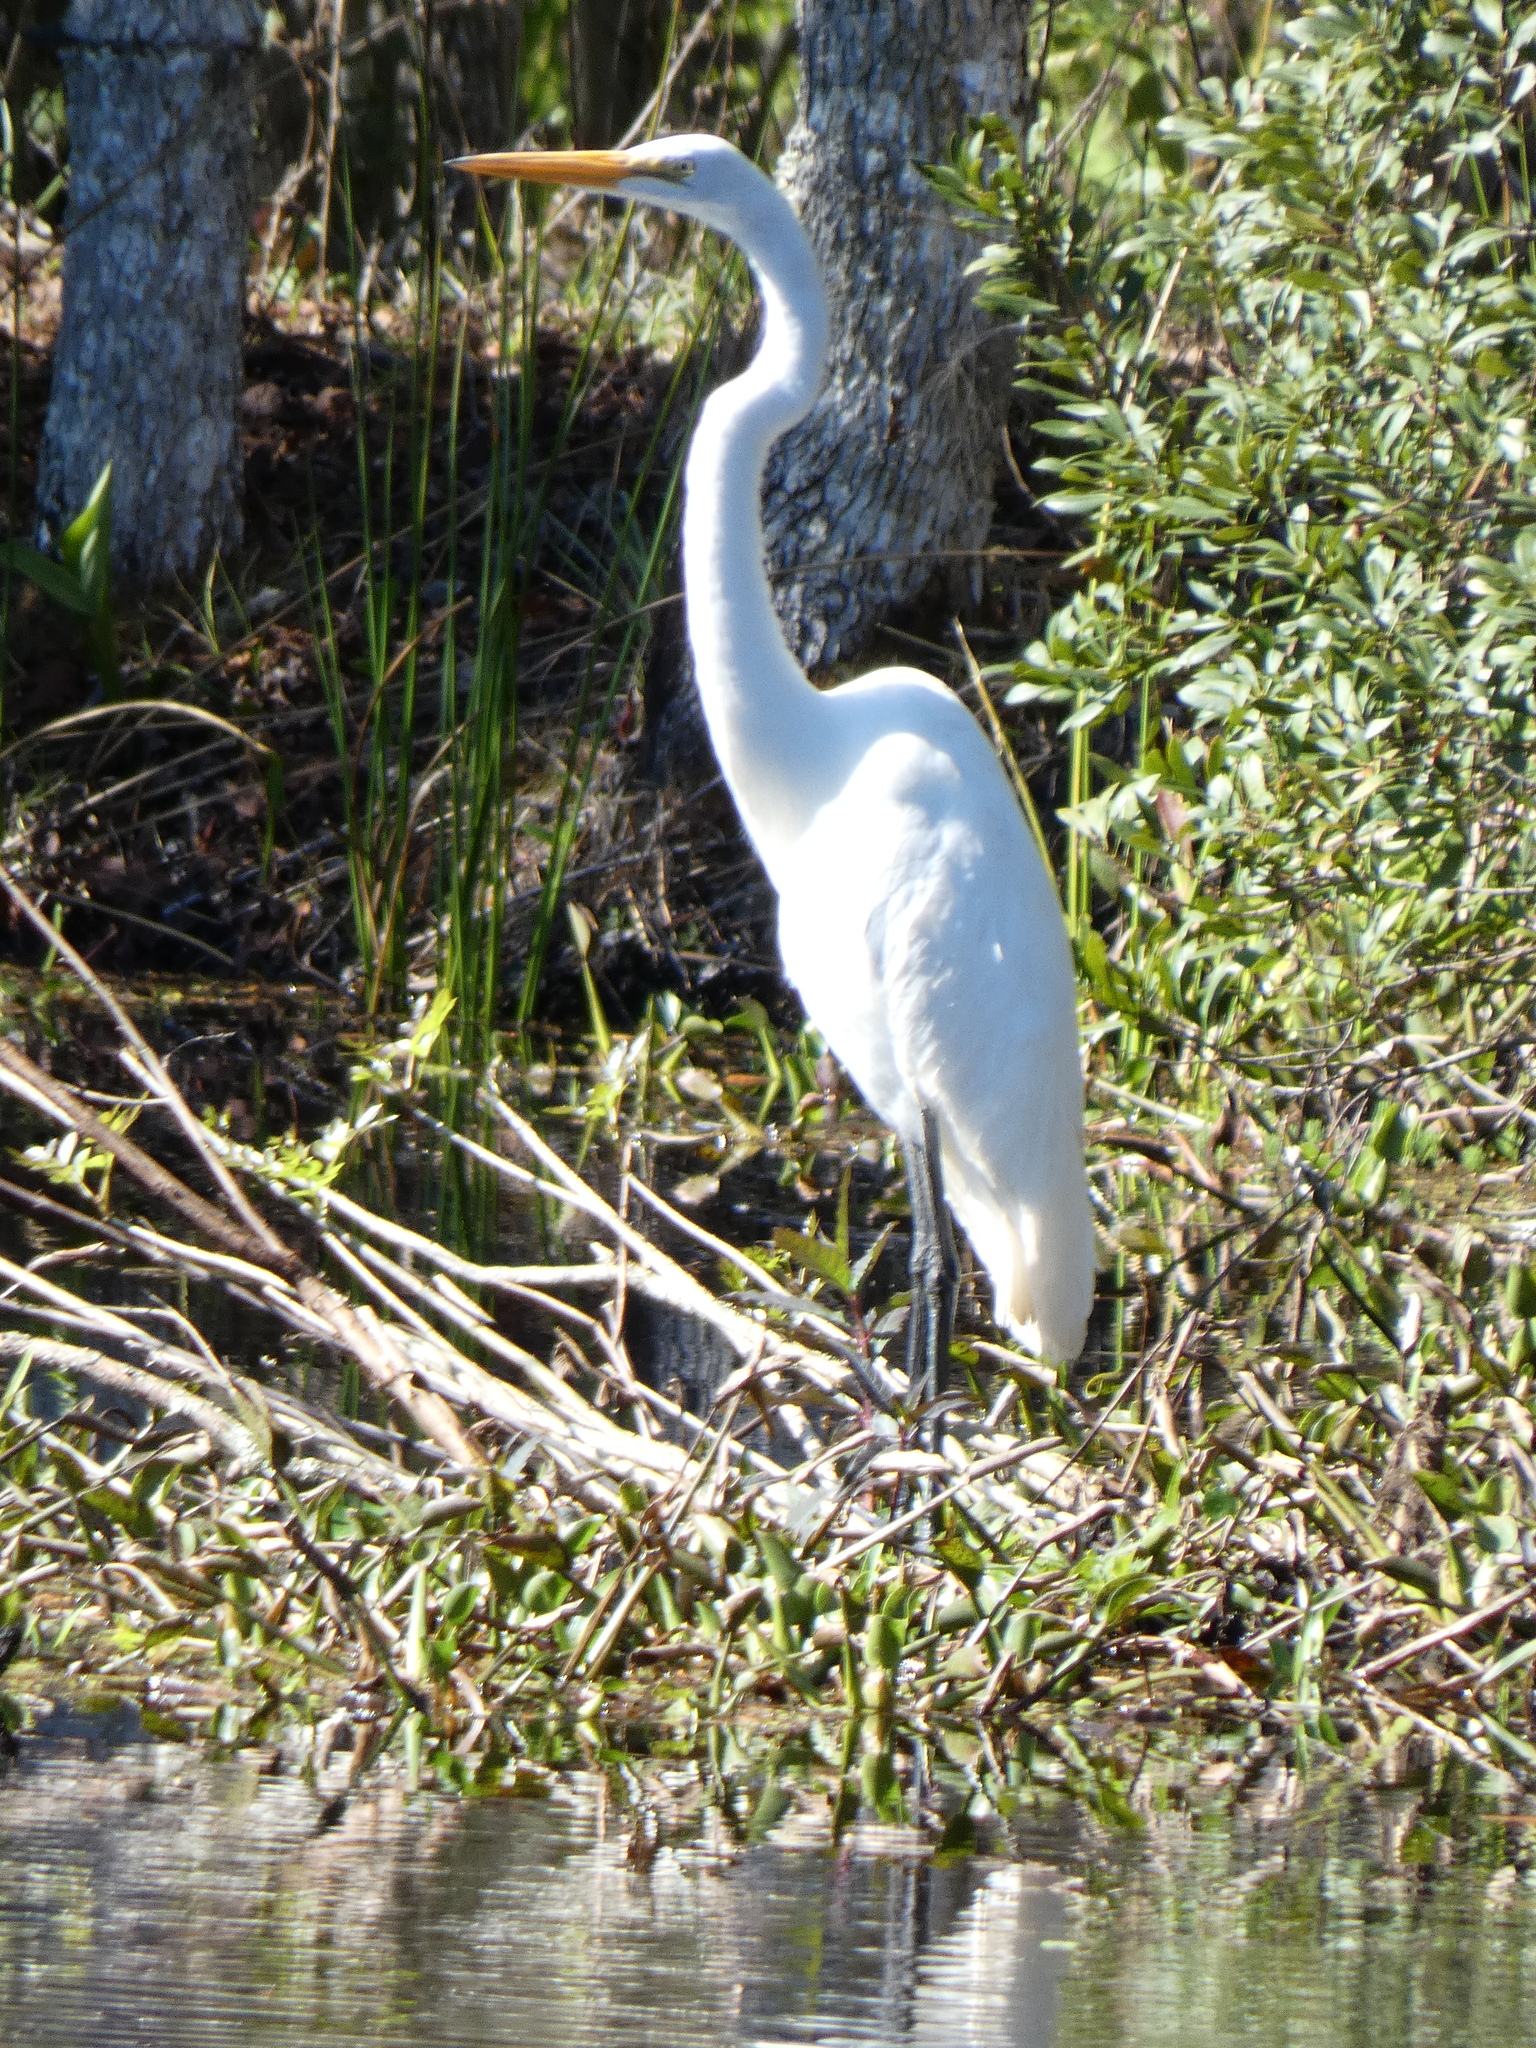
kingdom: Animalia
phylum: Chordata
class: Aves
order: Pelecaniformes
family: Ardeidae
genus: Ardea
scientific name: Ardea alba
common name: Great egret
